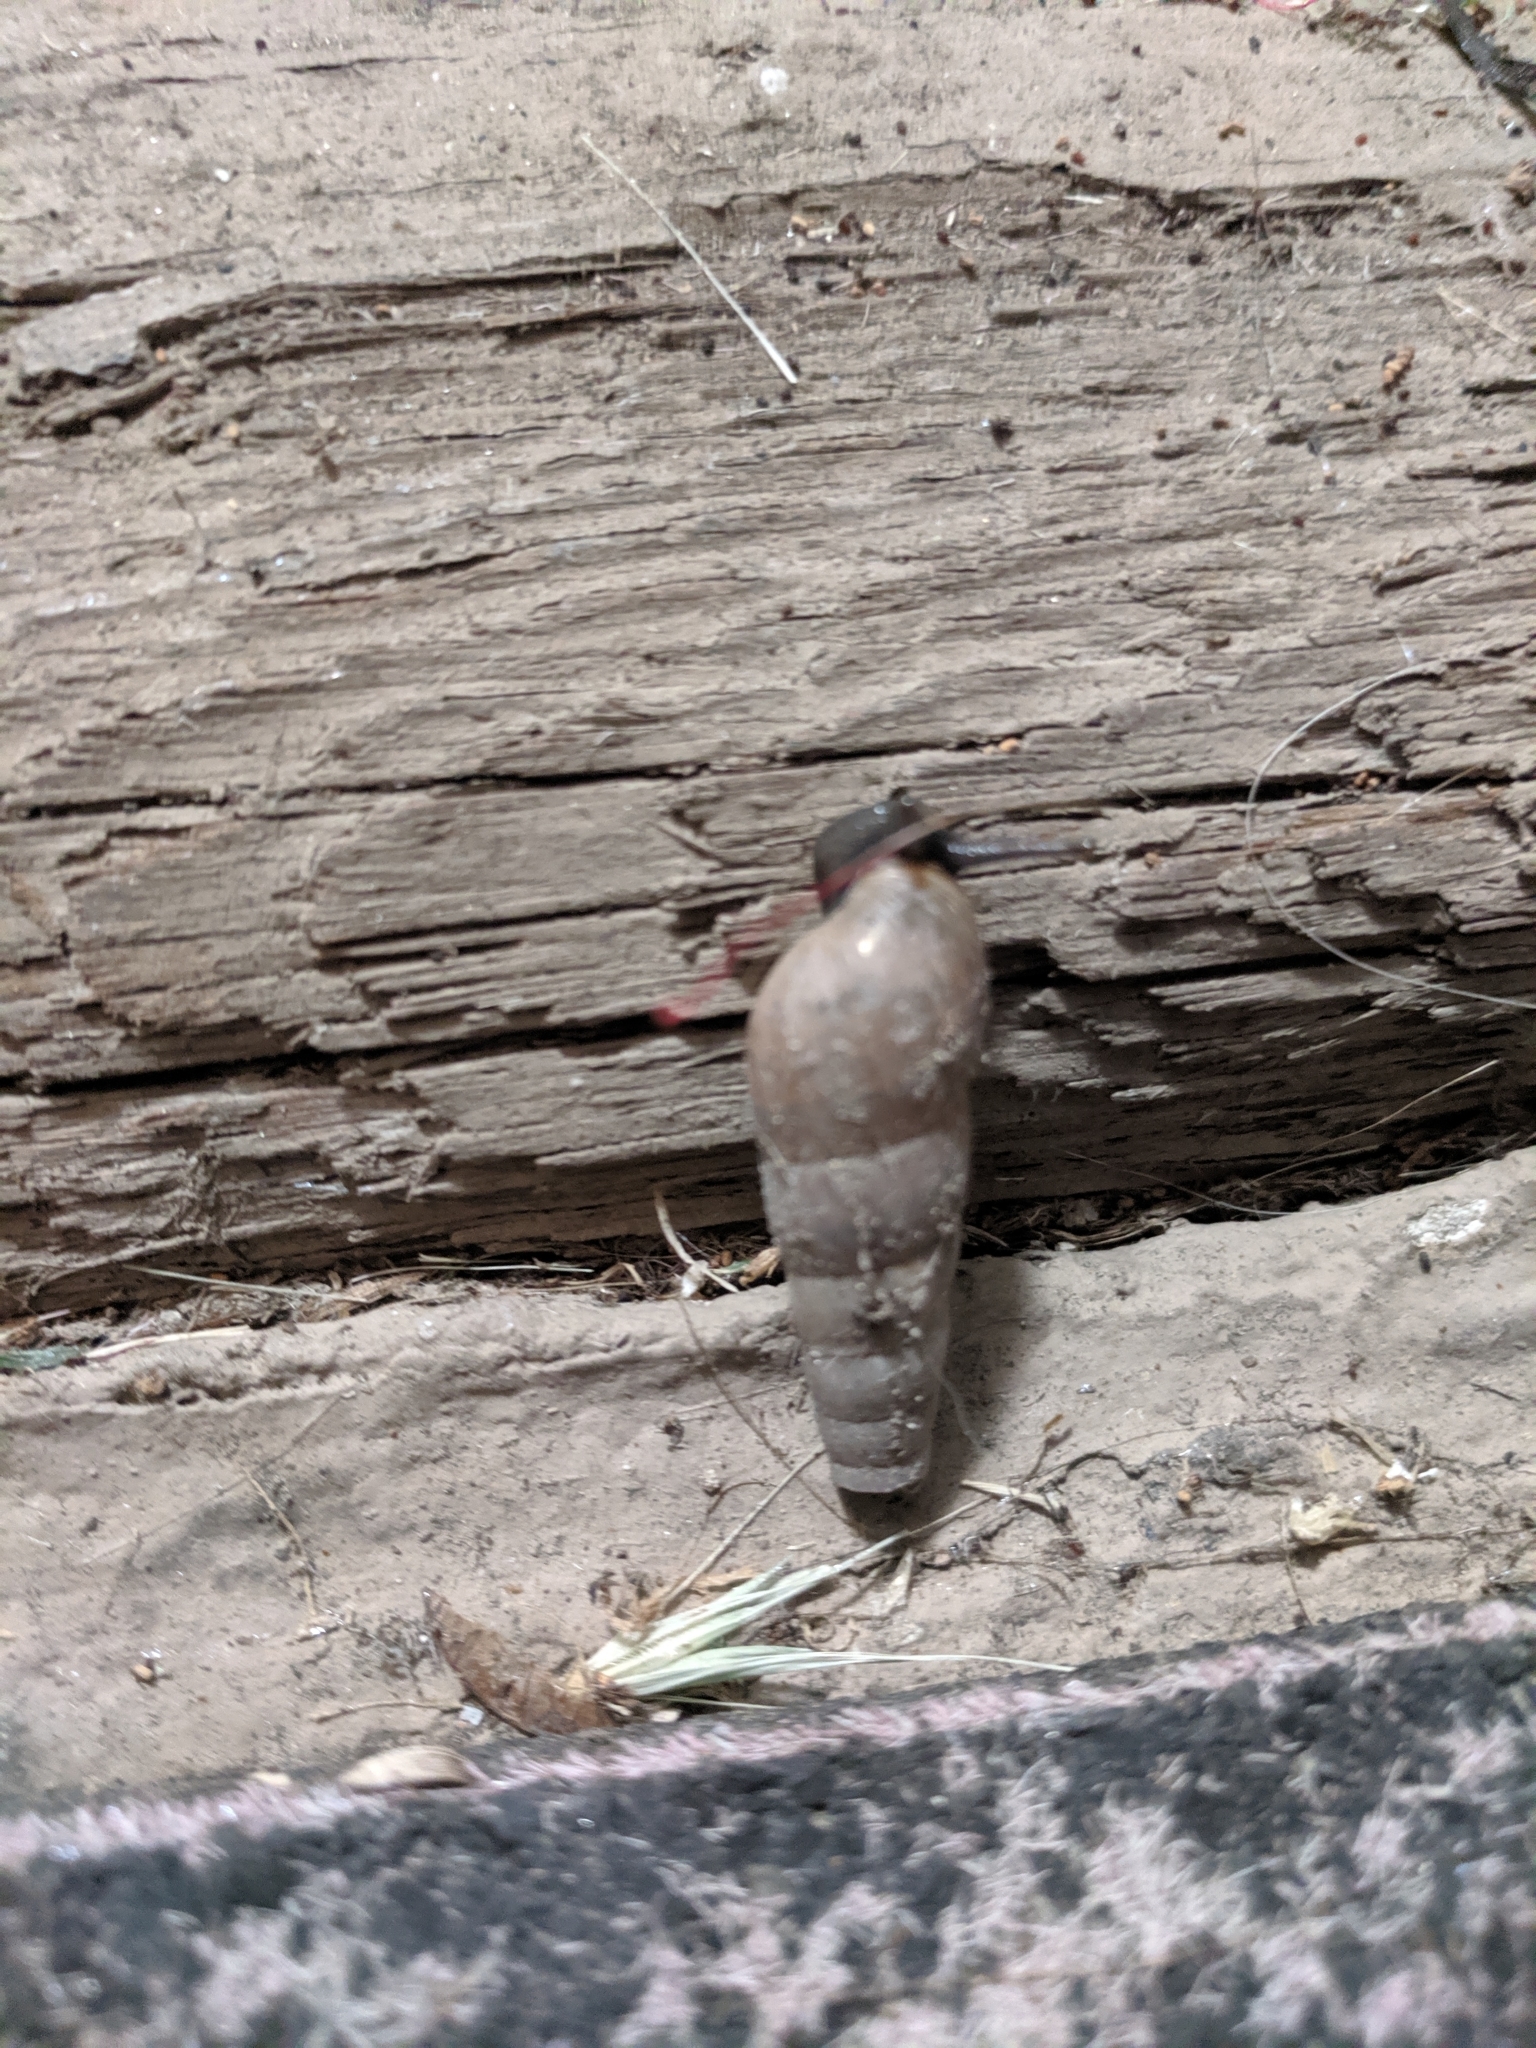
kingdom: Animalia
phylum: Mollusca
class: Gastropoda
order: Stylommatophora
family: Achatinidae
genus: Rumina
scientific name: Rumina decollata
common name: Decollate snail
